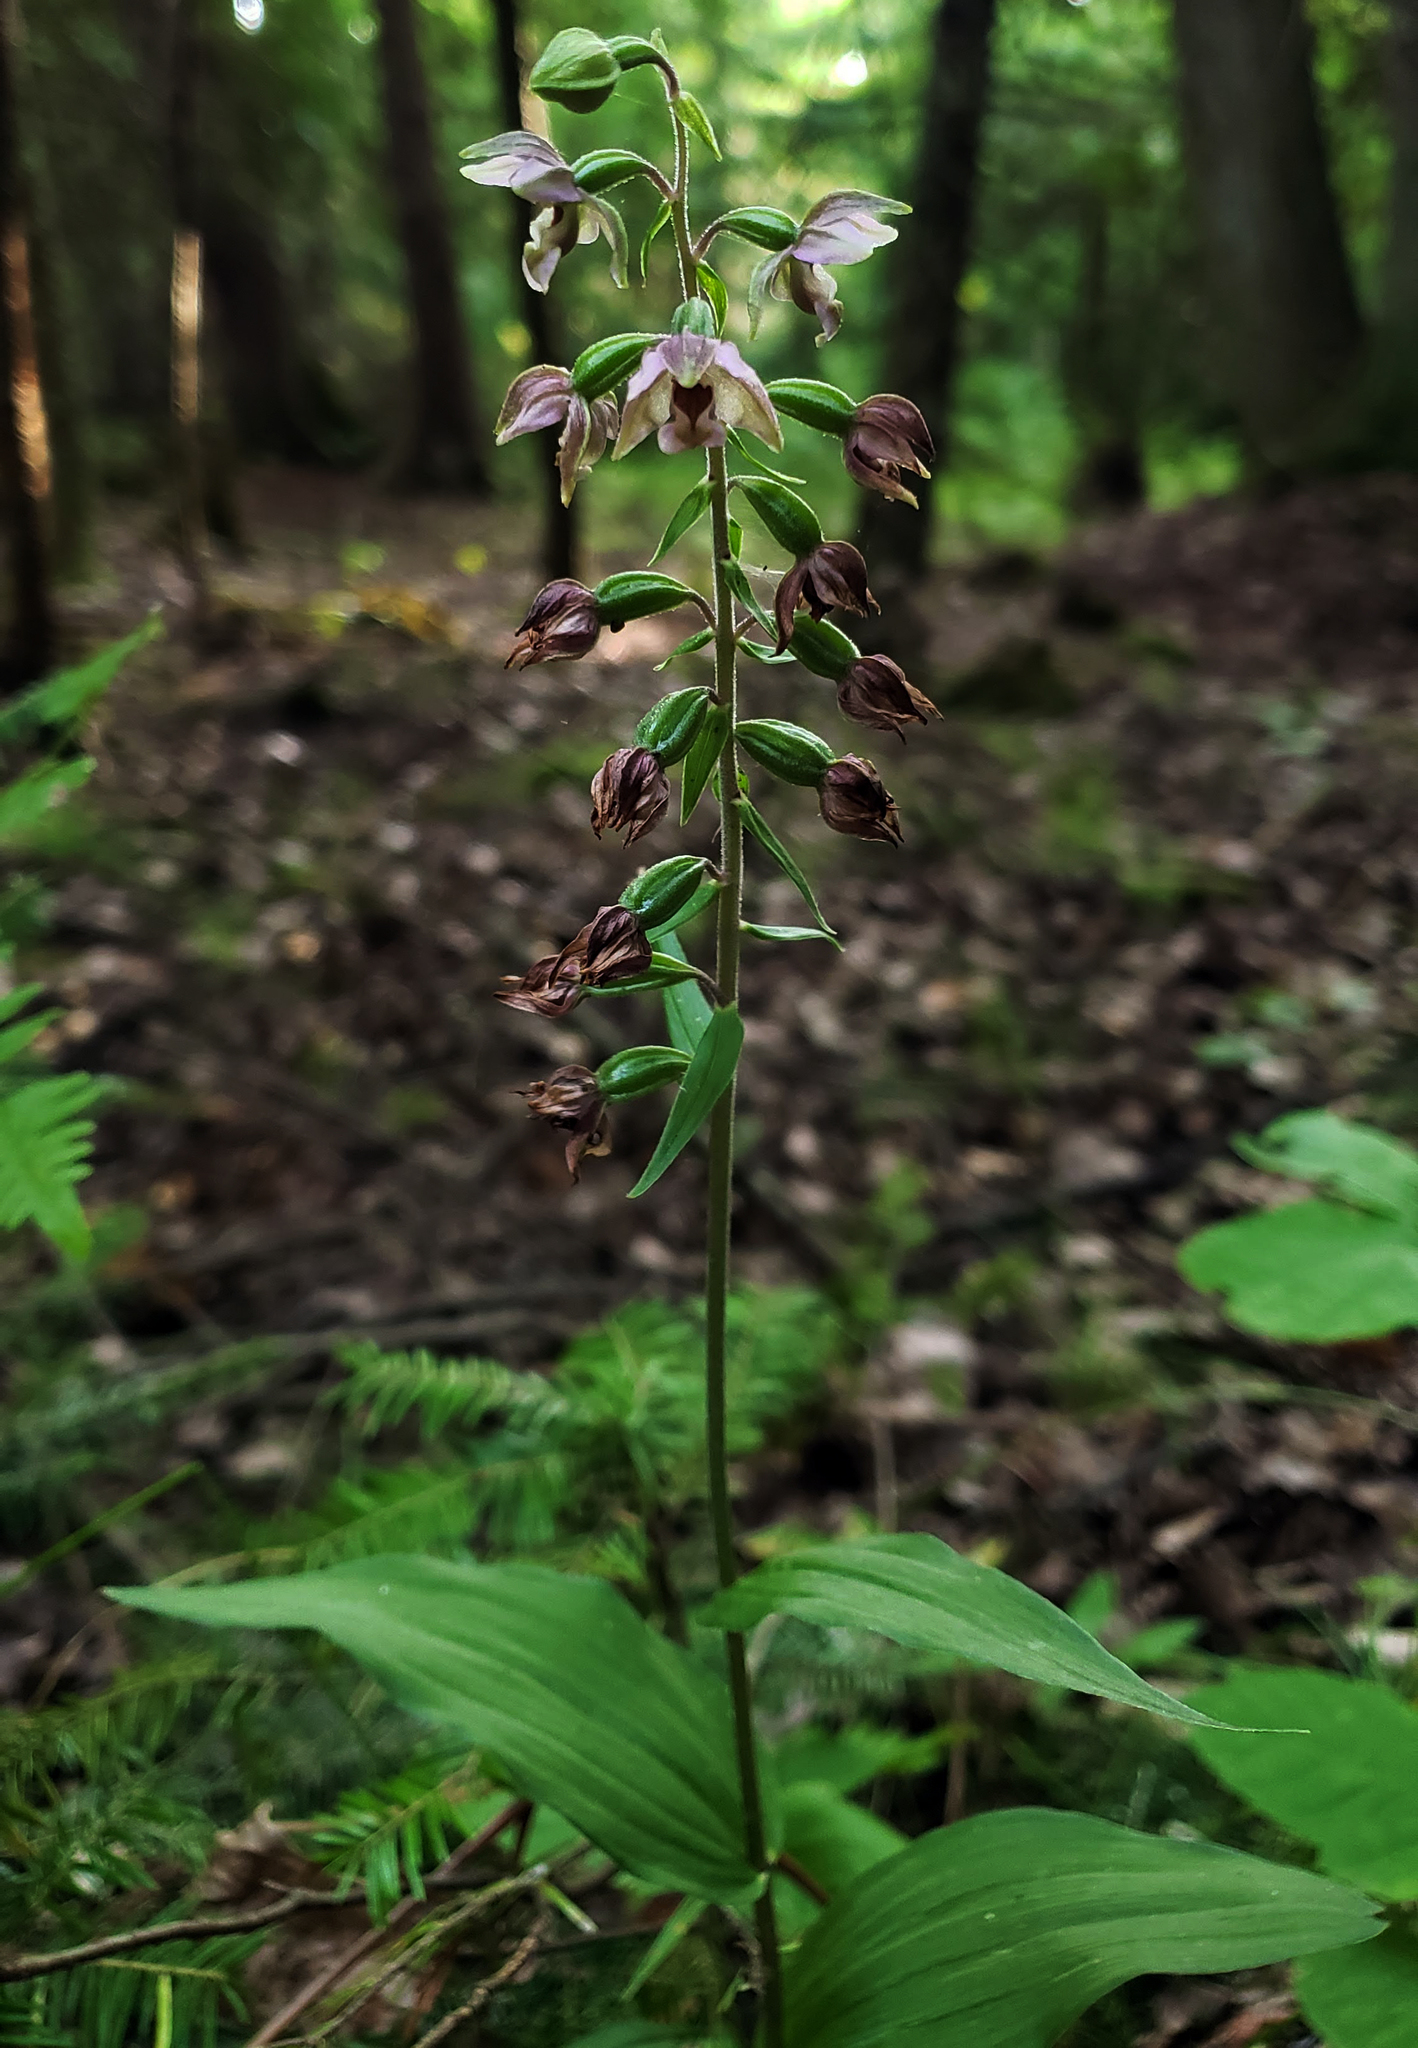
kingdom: Plantae
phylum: Tracheophyta
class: Liliopsida
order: Asparagales
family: Orchidaceae
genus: Epipactis
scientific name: Epipactis helleborine
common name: Broad-leaved helleborine
